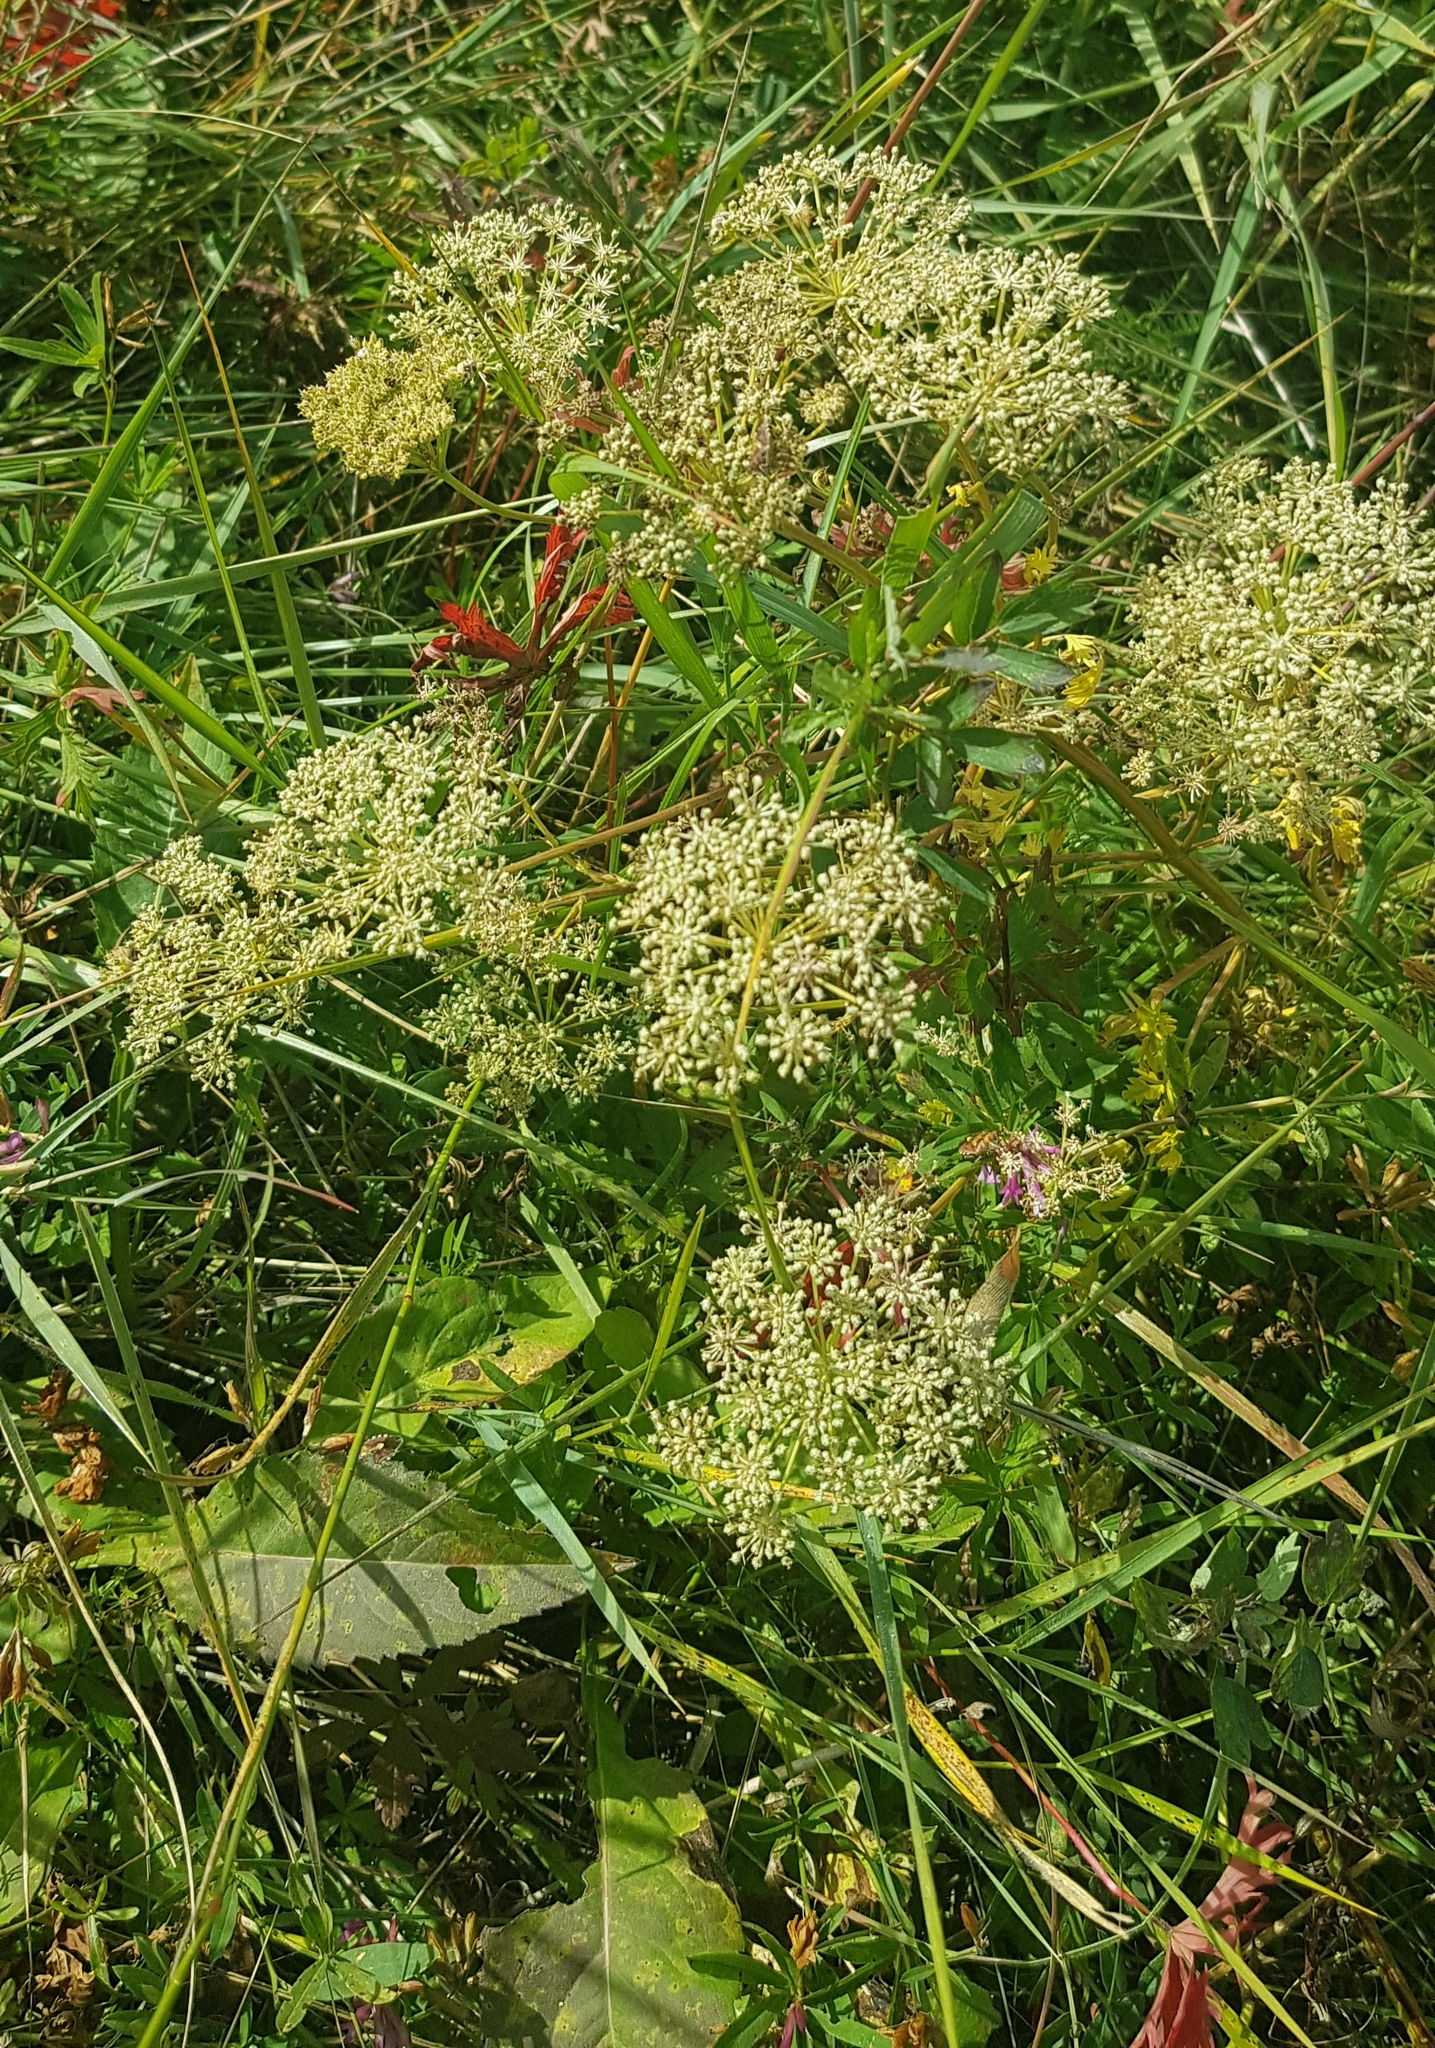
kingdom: Plantae
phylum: Tracheophyta
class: Magnoliopsida
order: Apiales
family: Apiaceae
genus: Saposhnikovia
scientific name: Saposhnikovia divaricata
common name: Siler
